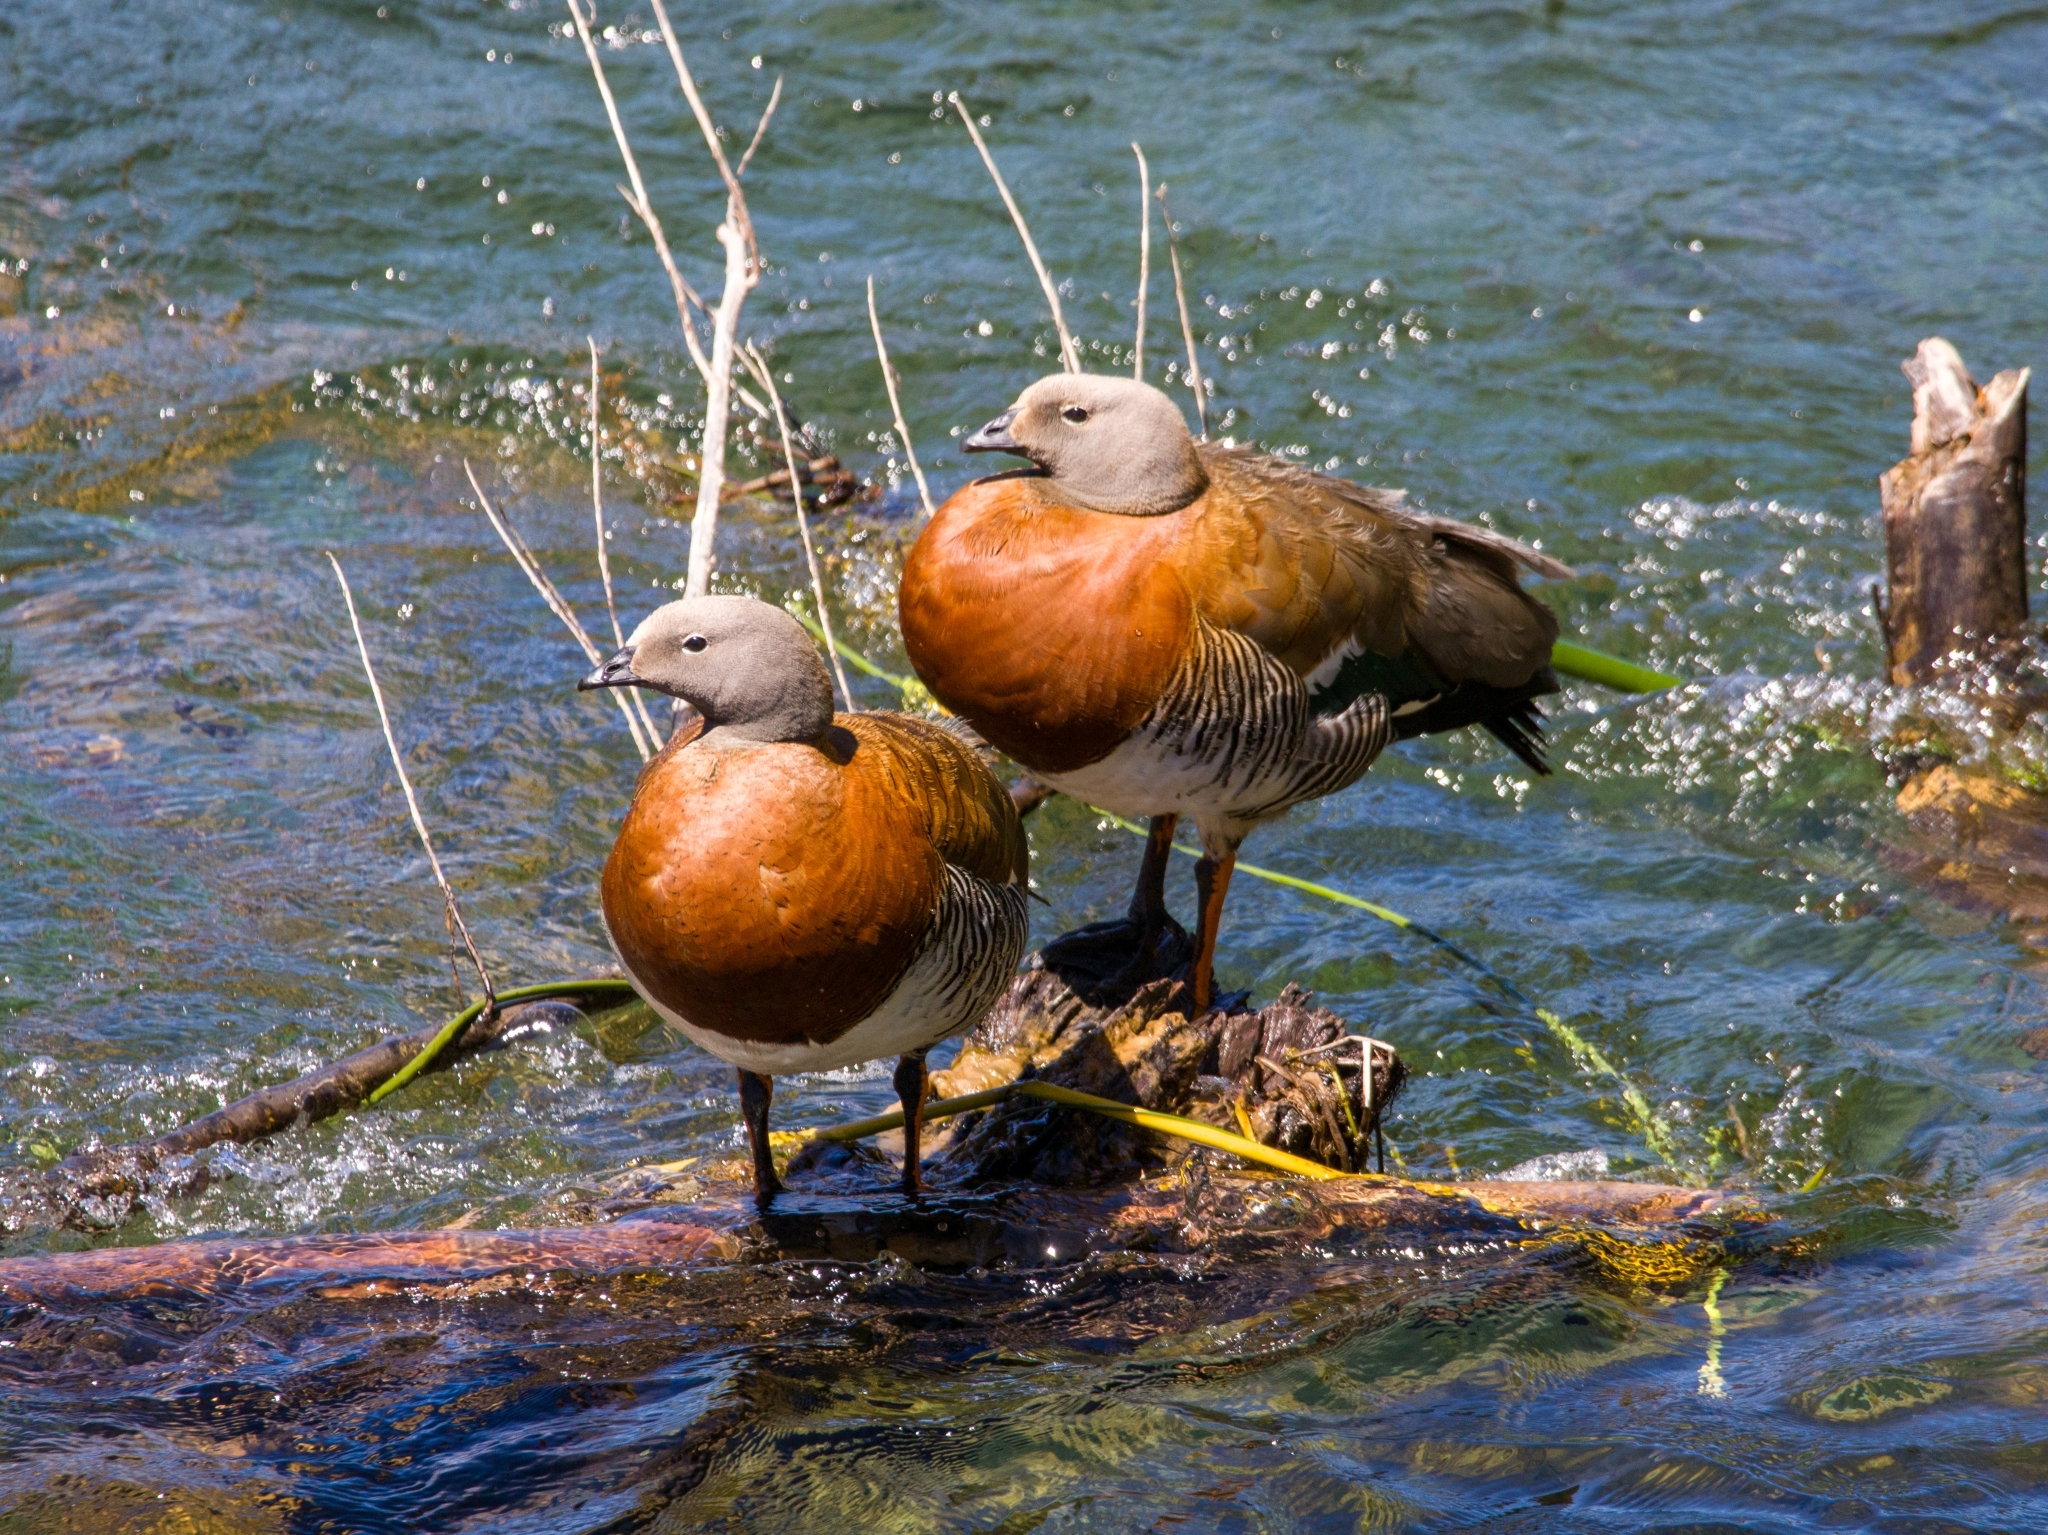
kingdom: Animalia
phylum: Chordata
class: Aves
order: Anseriformes
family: Anatidae
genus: Chloephaga
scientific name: Chloephaga poliocephala
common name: Ashy-headed goose
